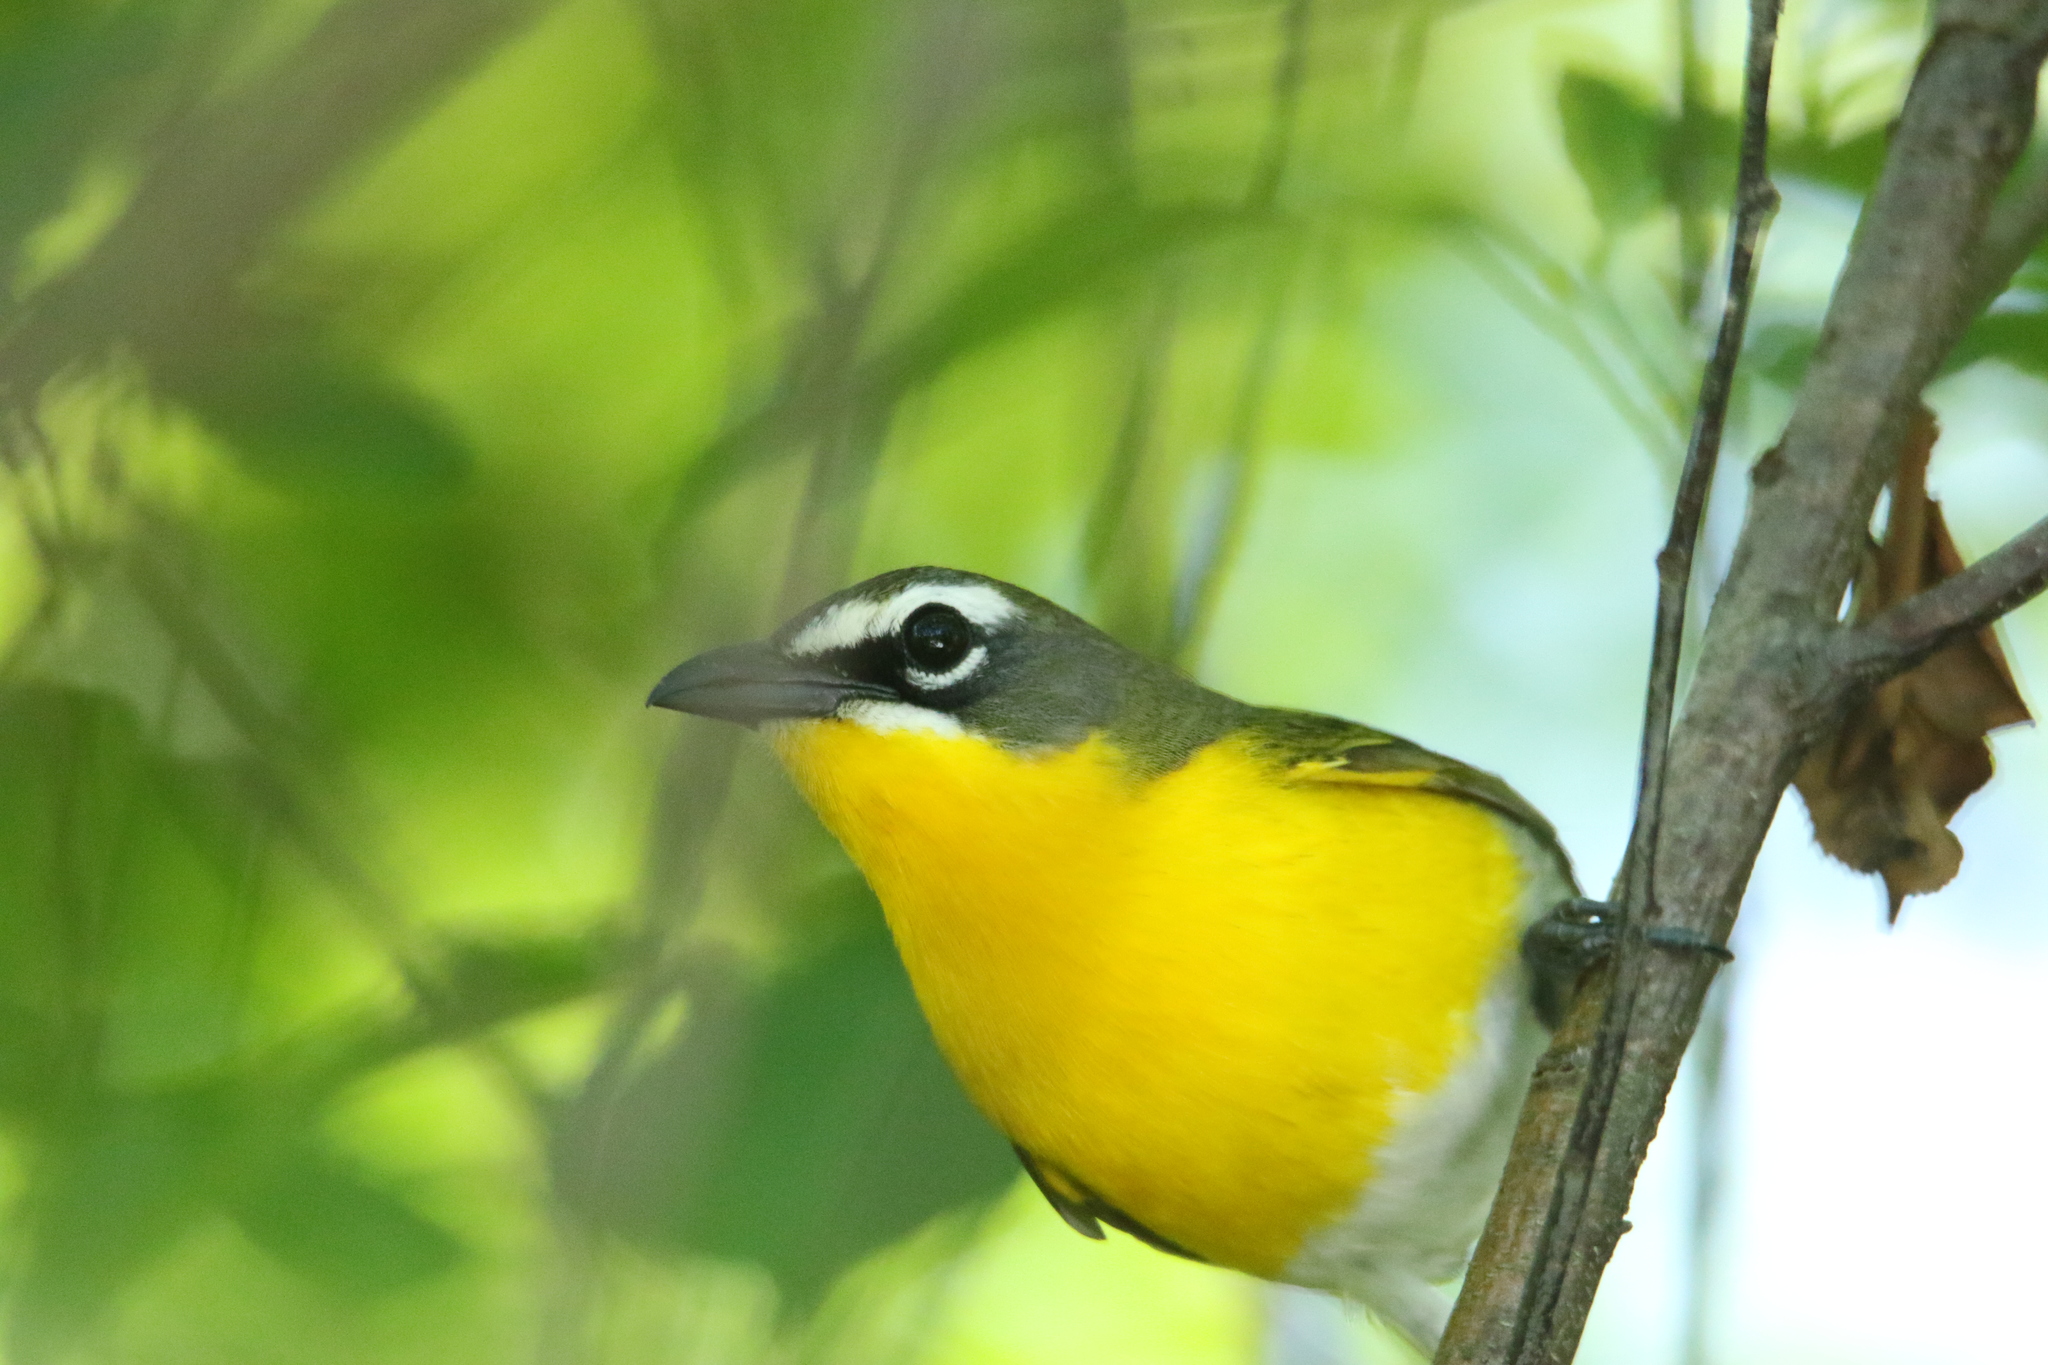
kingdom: Animalia
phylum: Chordata
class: Aves
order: Passeriformes
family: Parulidae
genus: Icteria
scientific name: Icteria virens
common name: Yellow-breasted chat
